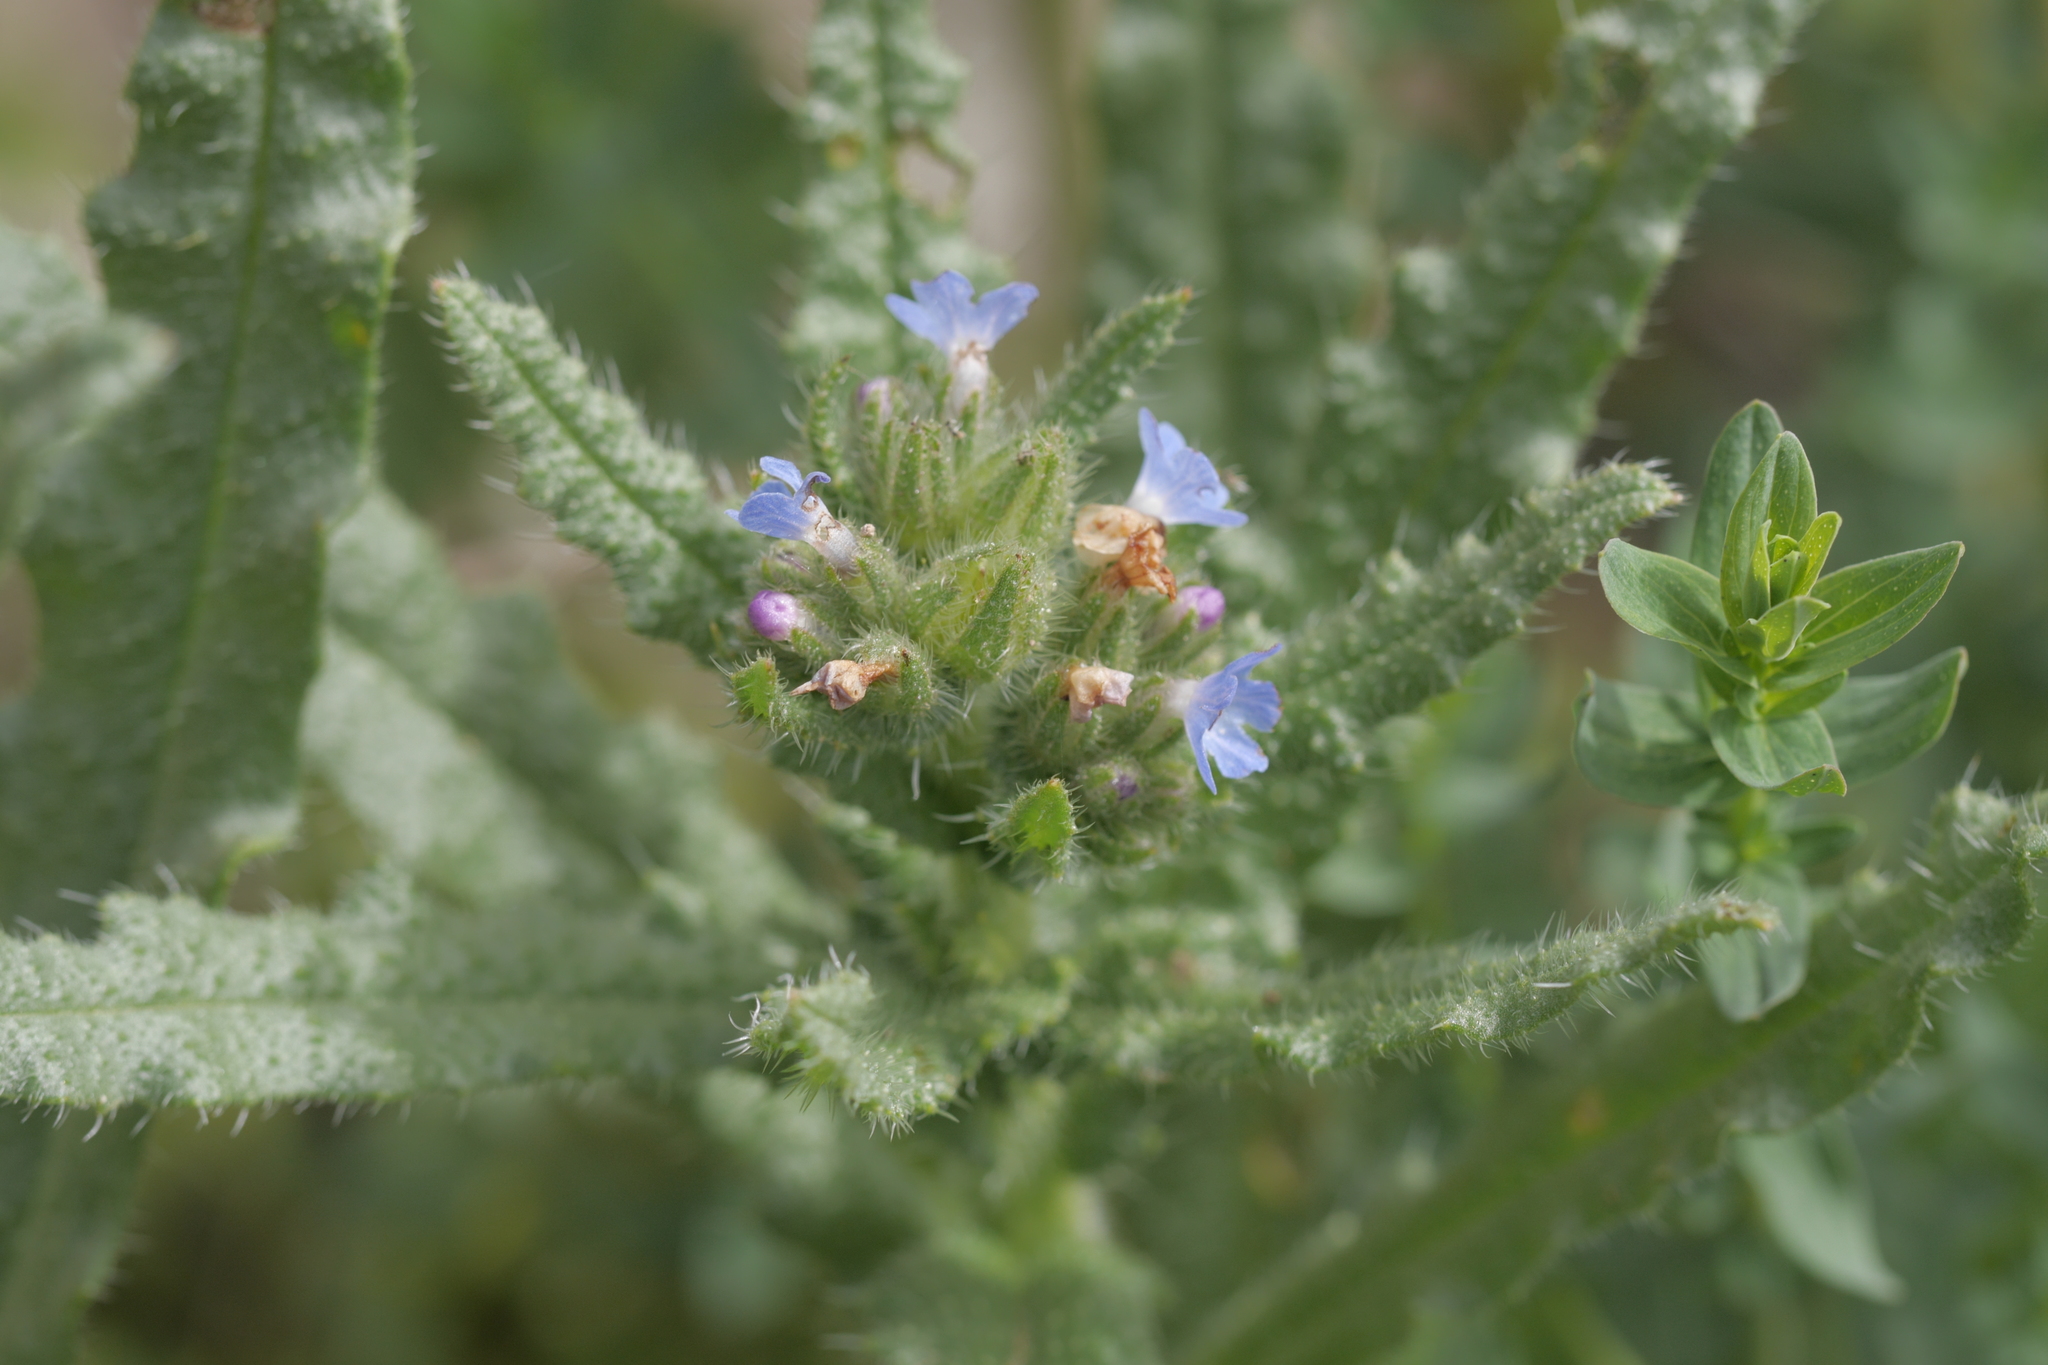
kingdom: Plantae
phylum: Tracheophyta
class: Magnoliopsida
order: Boraginales
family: Boraginaceae
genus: Lycopsis
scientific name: Lycopsis arvensis
